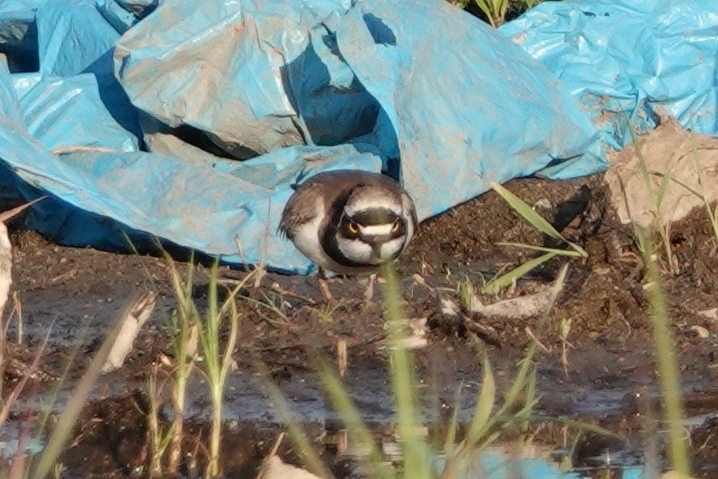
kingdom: Animalia
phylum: Chordata
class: Aves
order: Charadriiformes
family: Charadriidae
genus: Charadrius
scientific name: Charadrius dubius
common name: Little ringed plover
